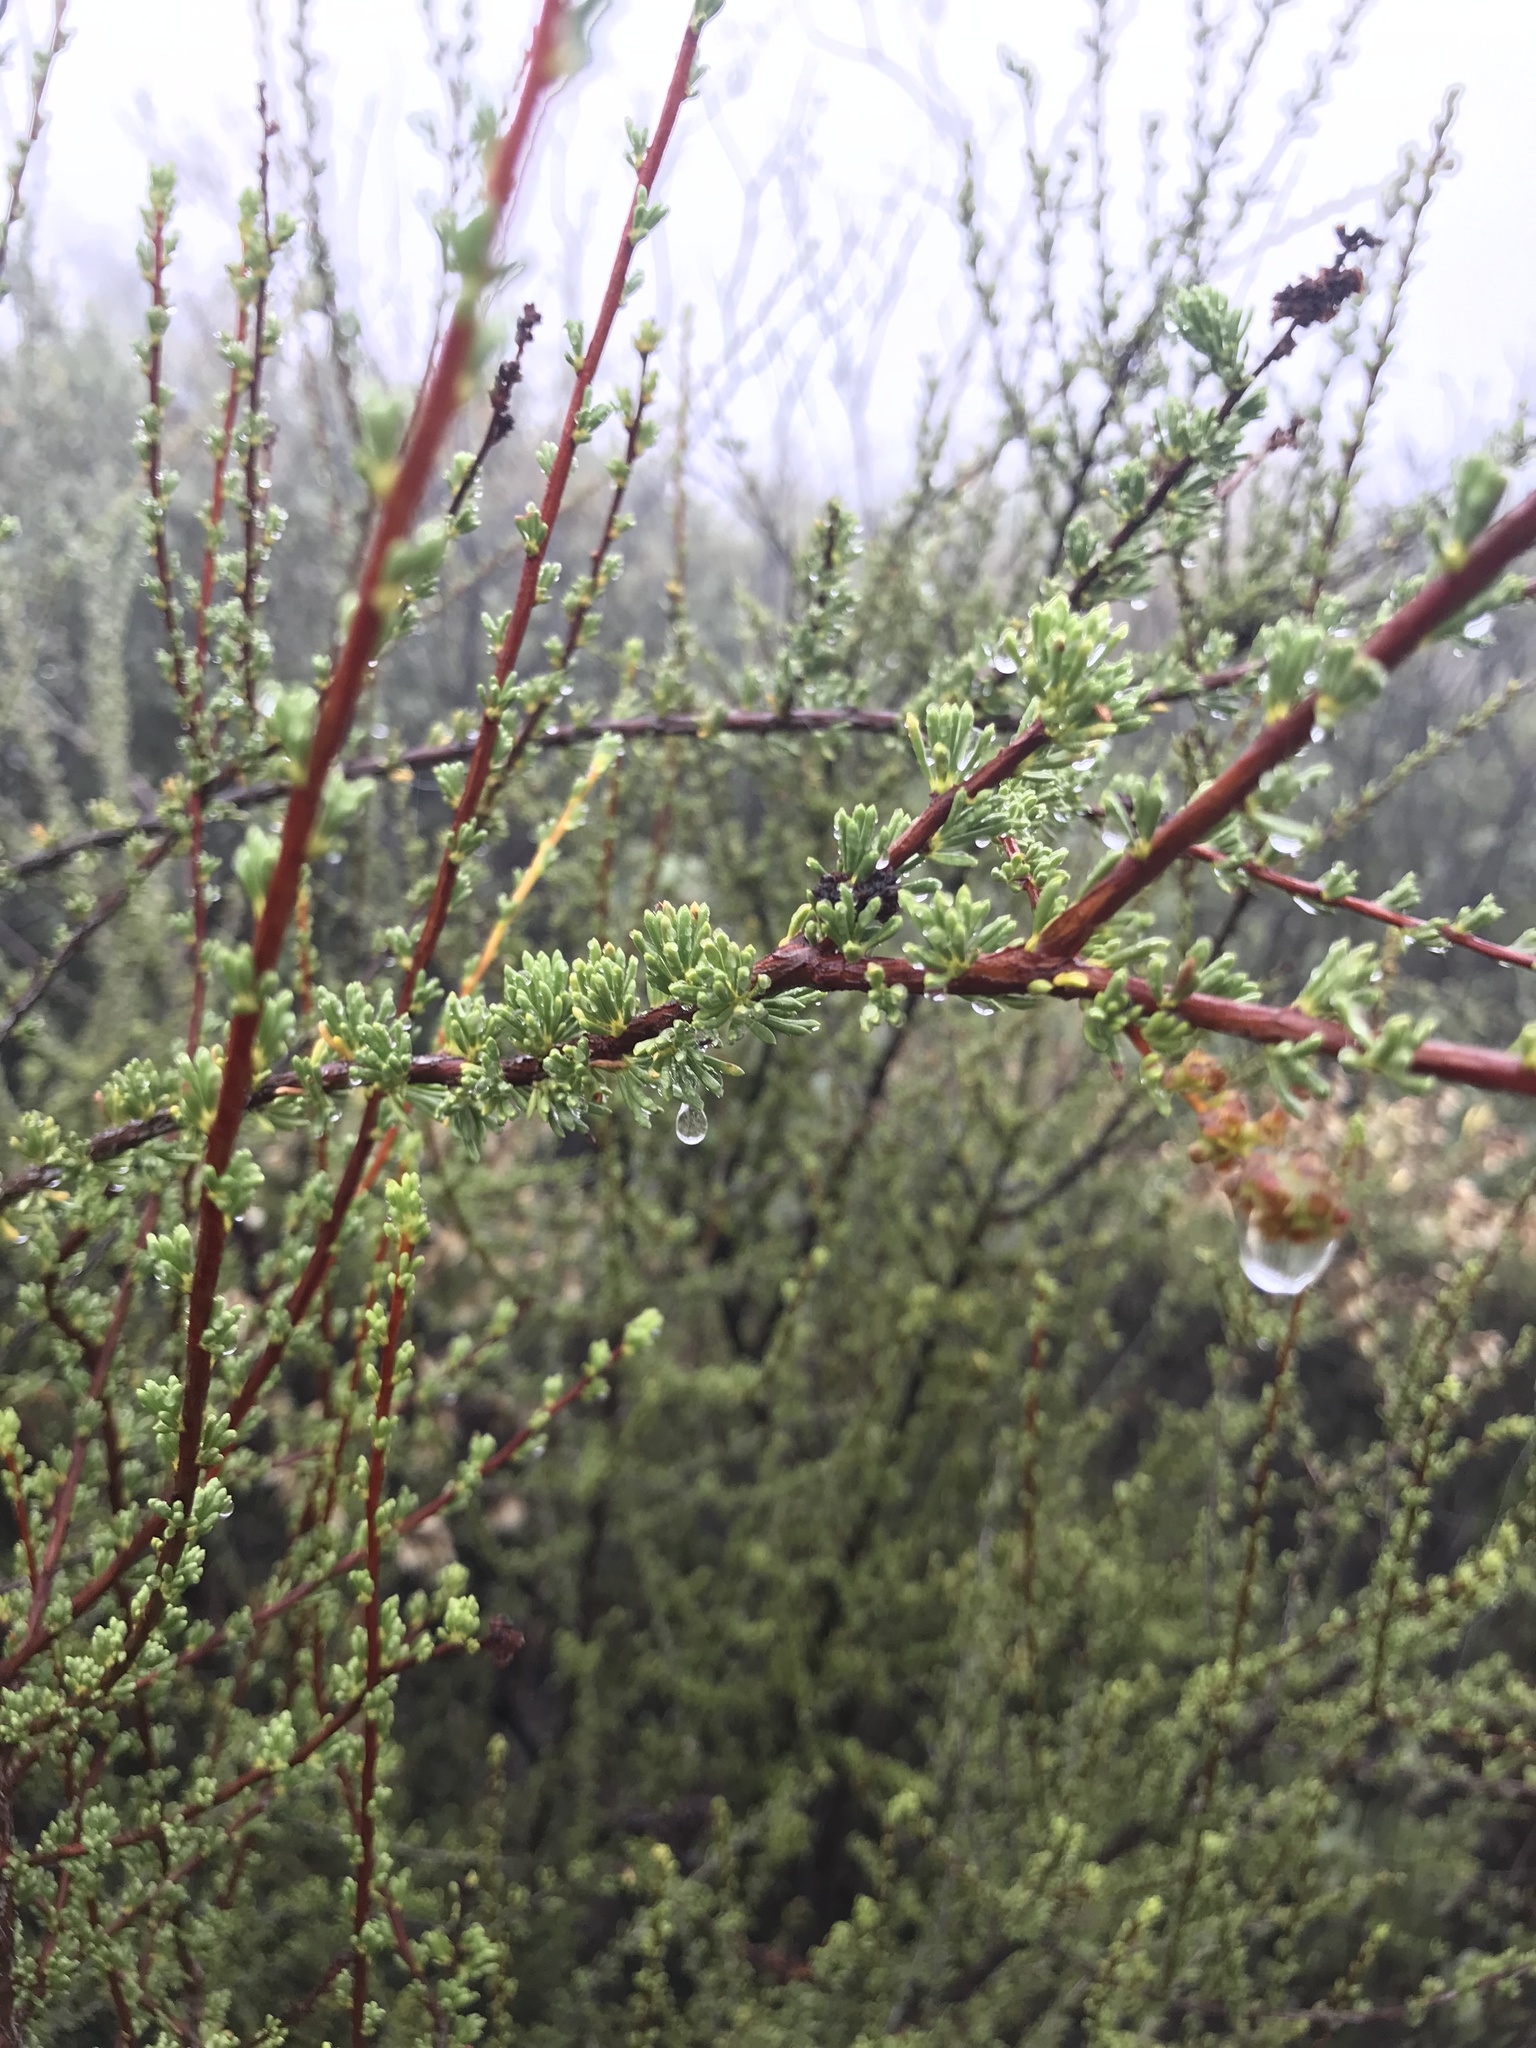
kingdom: Plantae
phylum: Tracheophyta
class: Magnoliopsida
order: Rosales
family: Rosaceae
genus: Adenostoma
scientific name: Adenostoma fasciculatum
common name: Chamise
